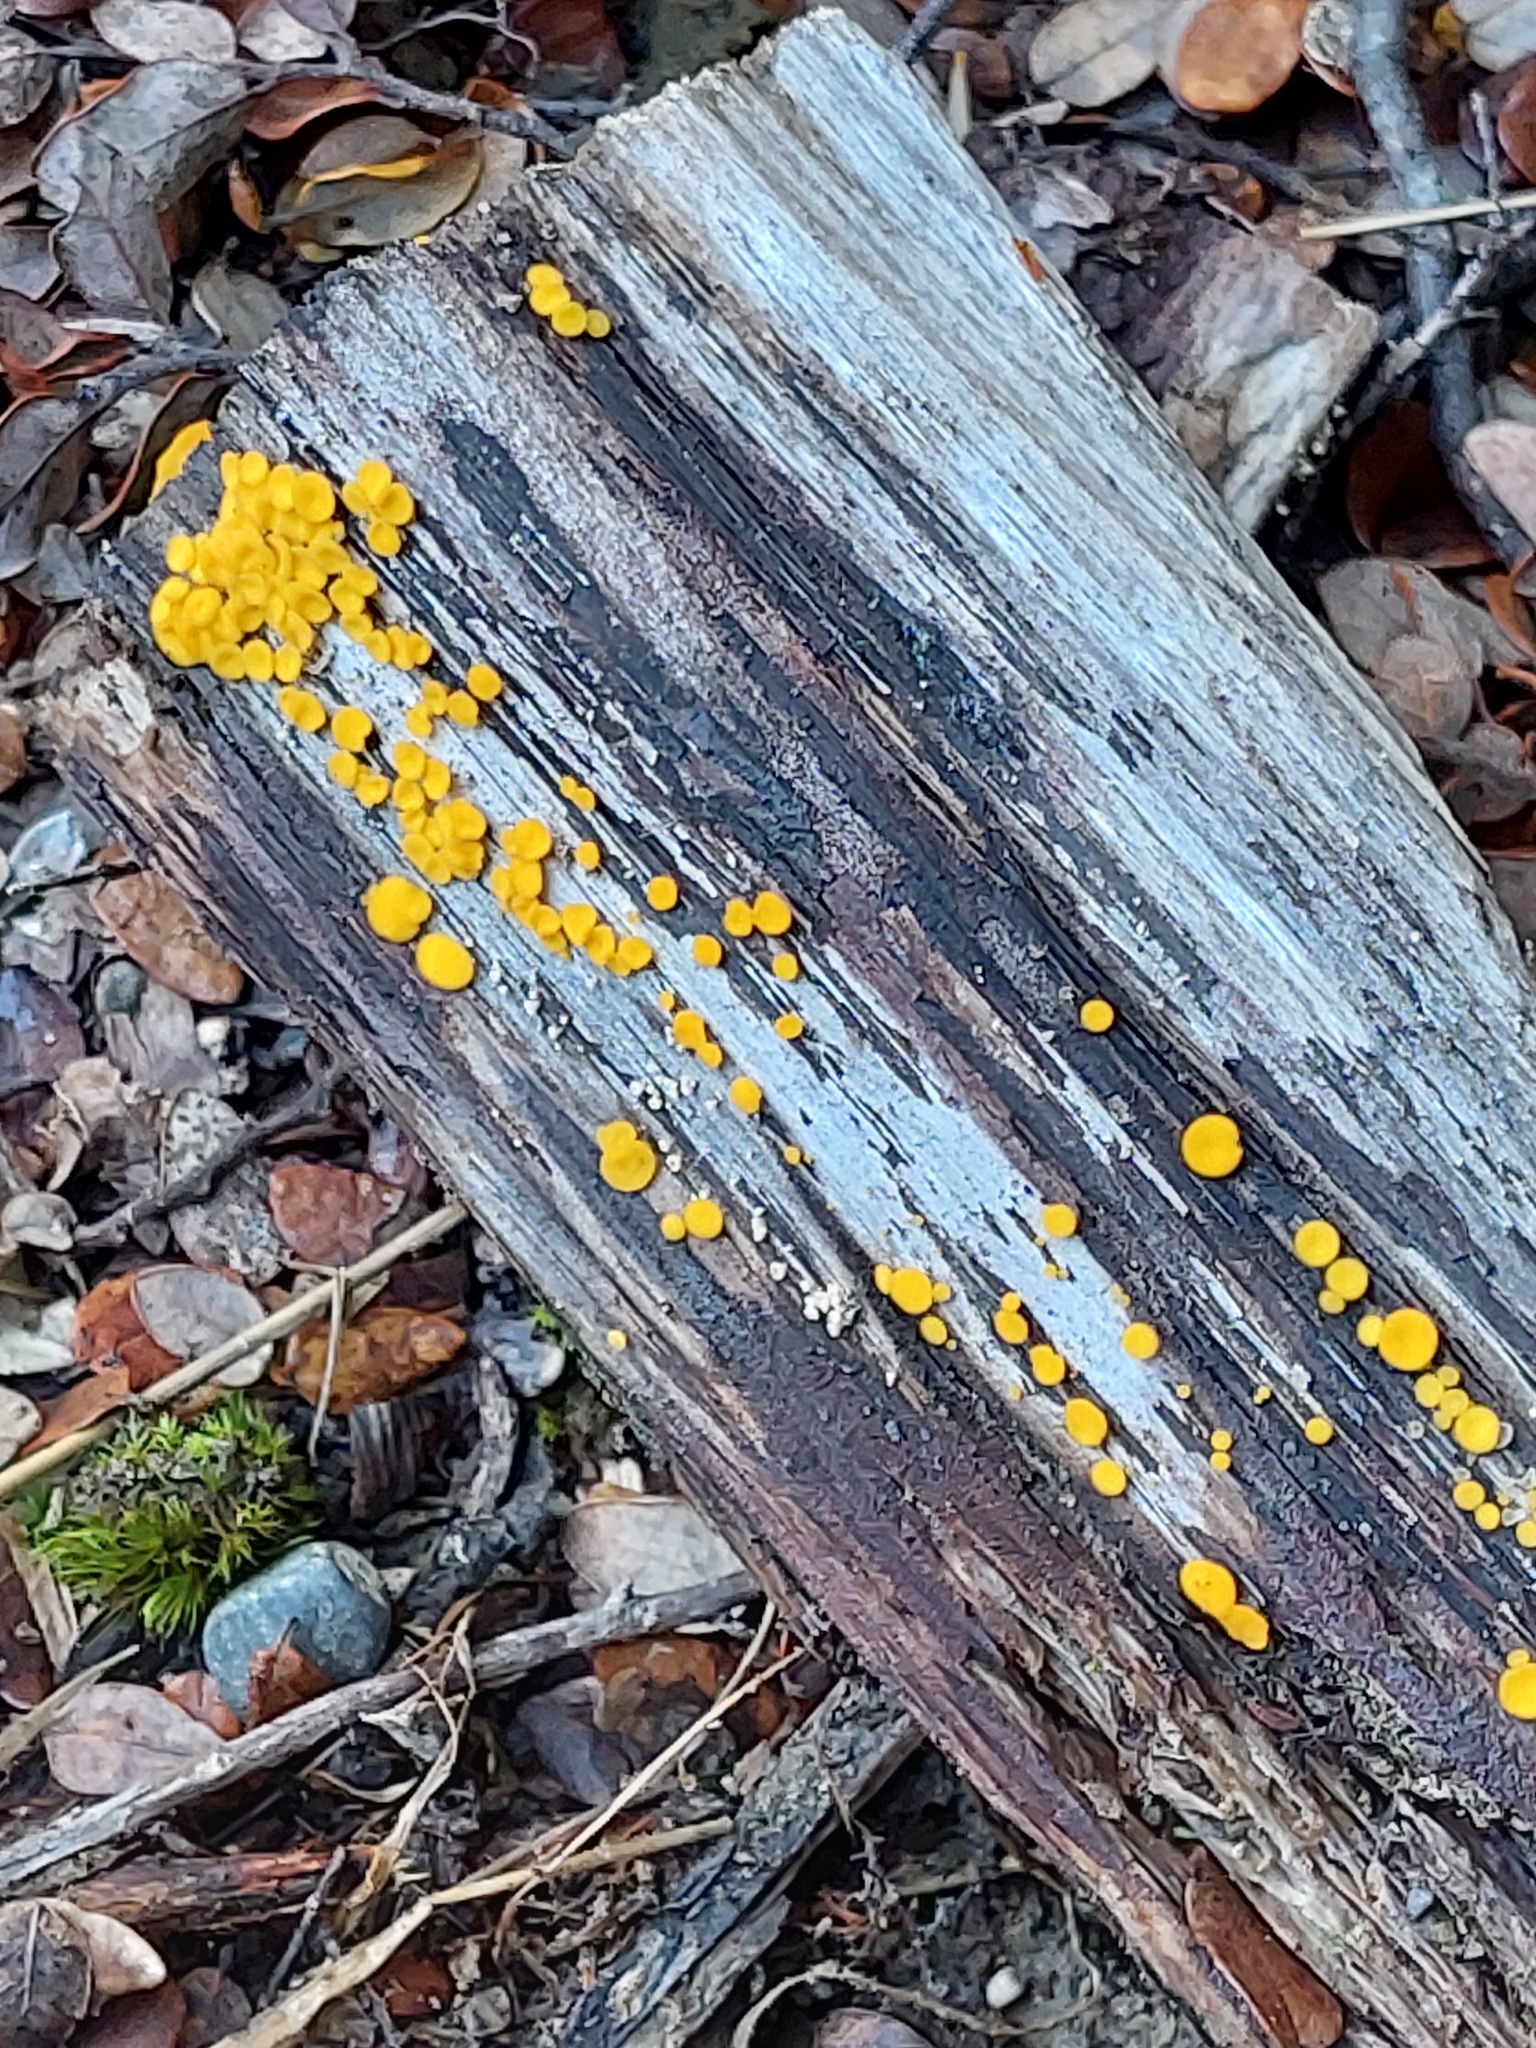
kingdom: Fungi
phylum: Ascomycota
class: Leotiomycetes
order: Helotiales
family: Pezizellaceae
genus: Calycina
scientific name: Calycina citrina
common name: Yellow fairy cups
